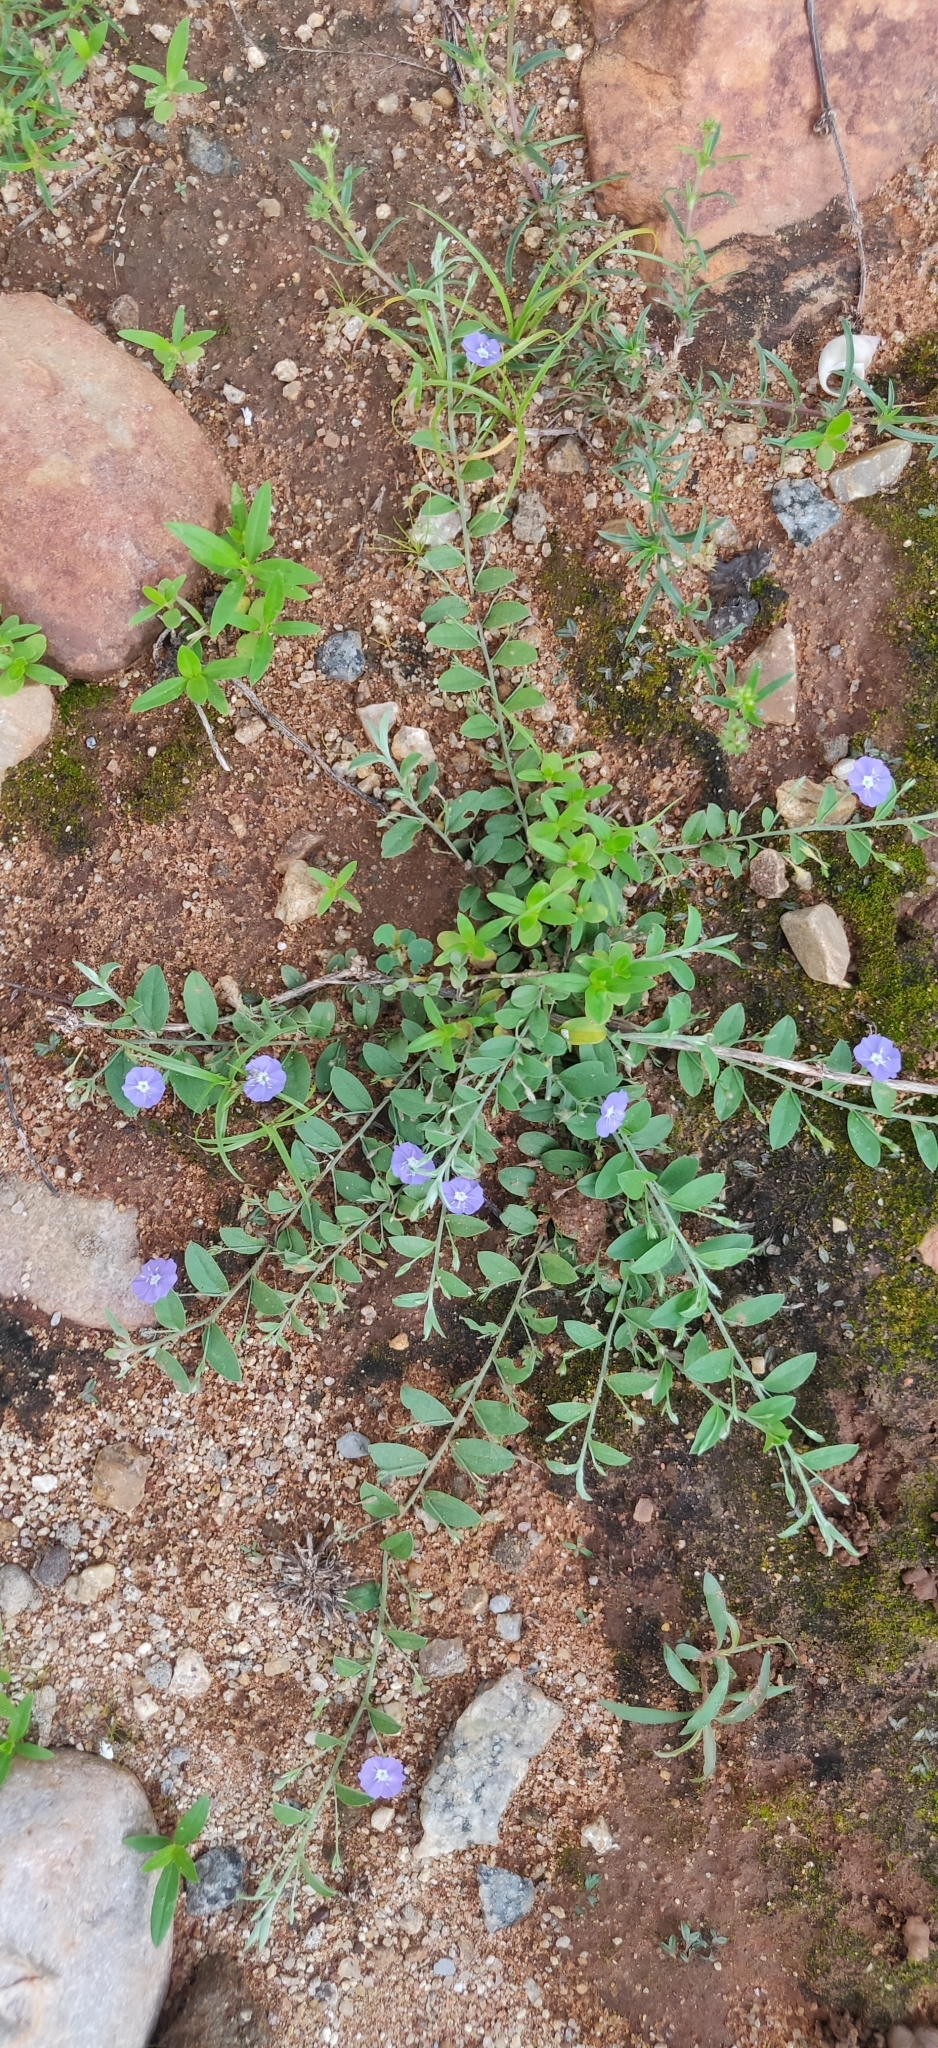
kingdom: Plantae
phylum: Tracheophyta
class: Magnoliopsida
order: Solanales
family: Convolvulaceae
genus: Evolvulus
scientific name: Evolvulus alsinoides
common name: Slender dwarf morning-glory
